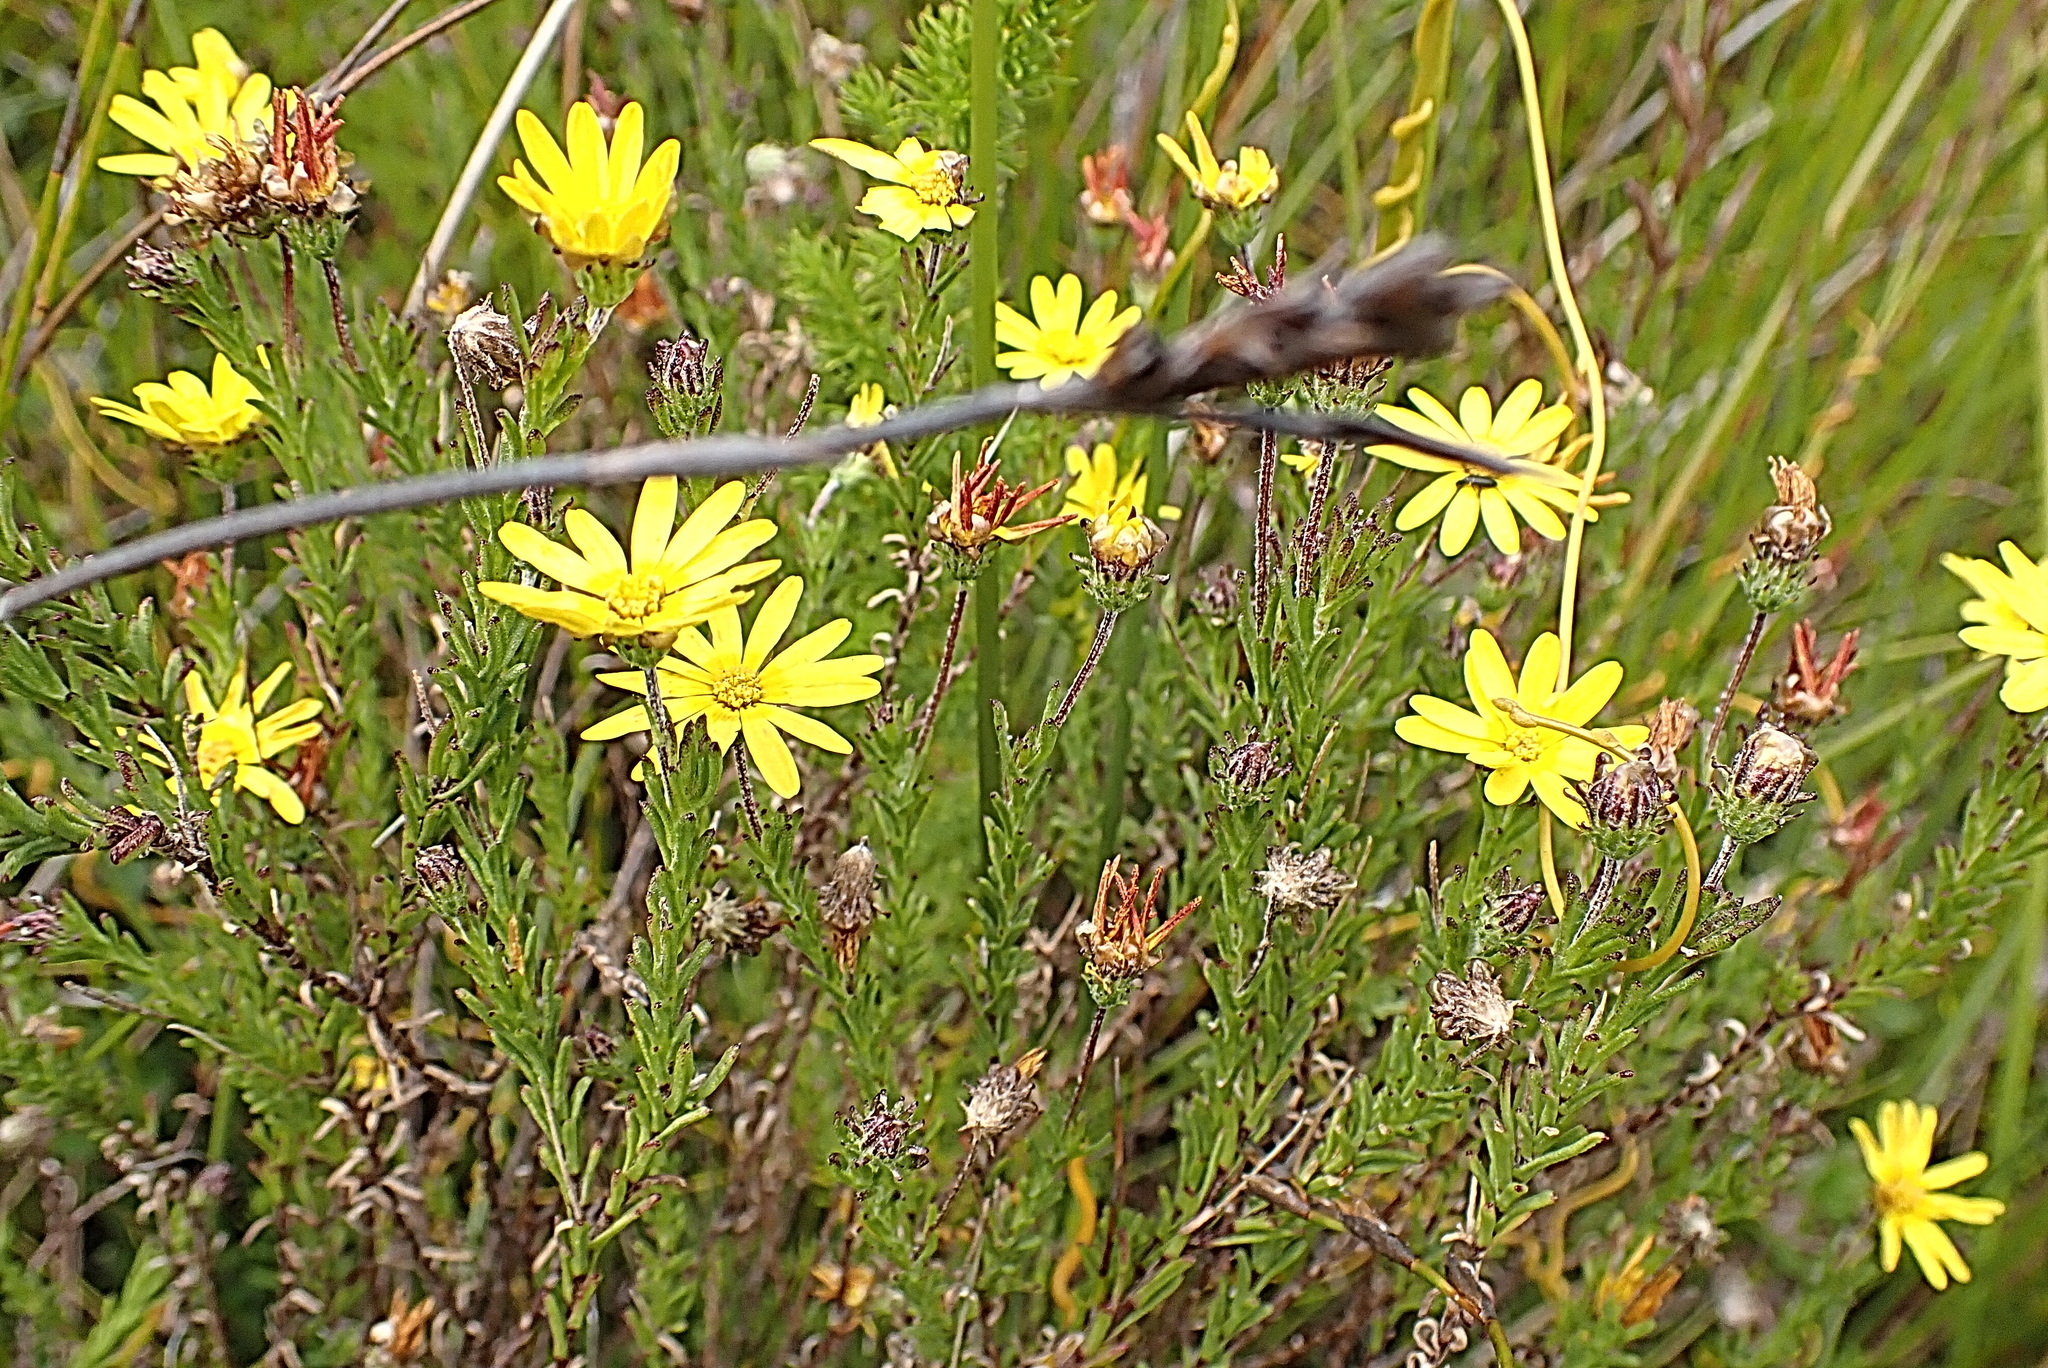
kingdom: Plantae
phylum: Tracheophyta
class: Magnoliopsida
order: Asterales
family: Asteraceae
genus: Ursinia
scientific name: Ursinia trifida
